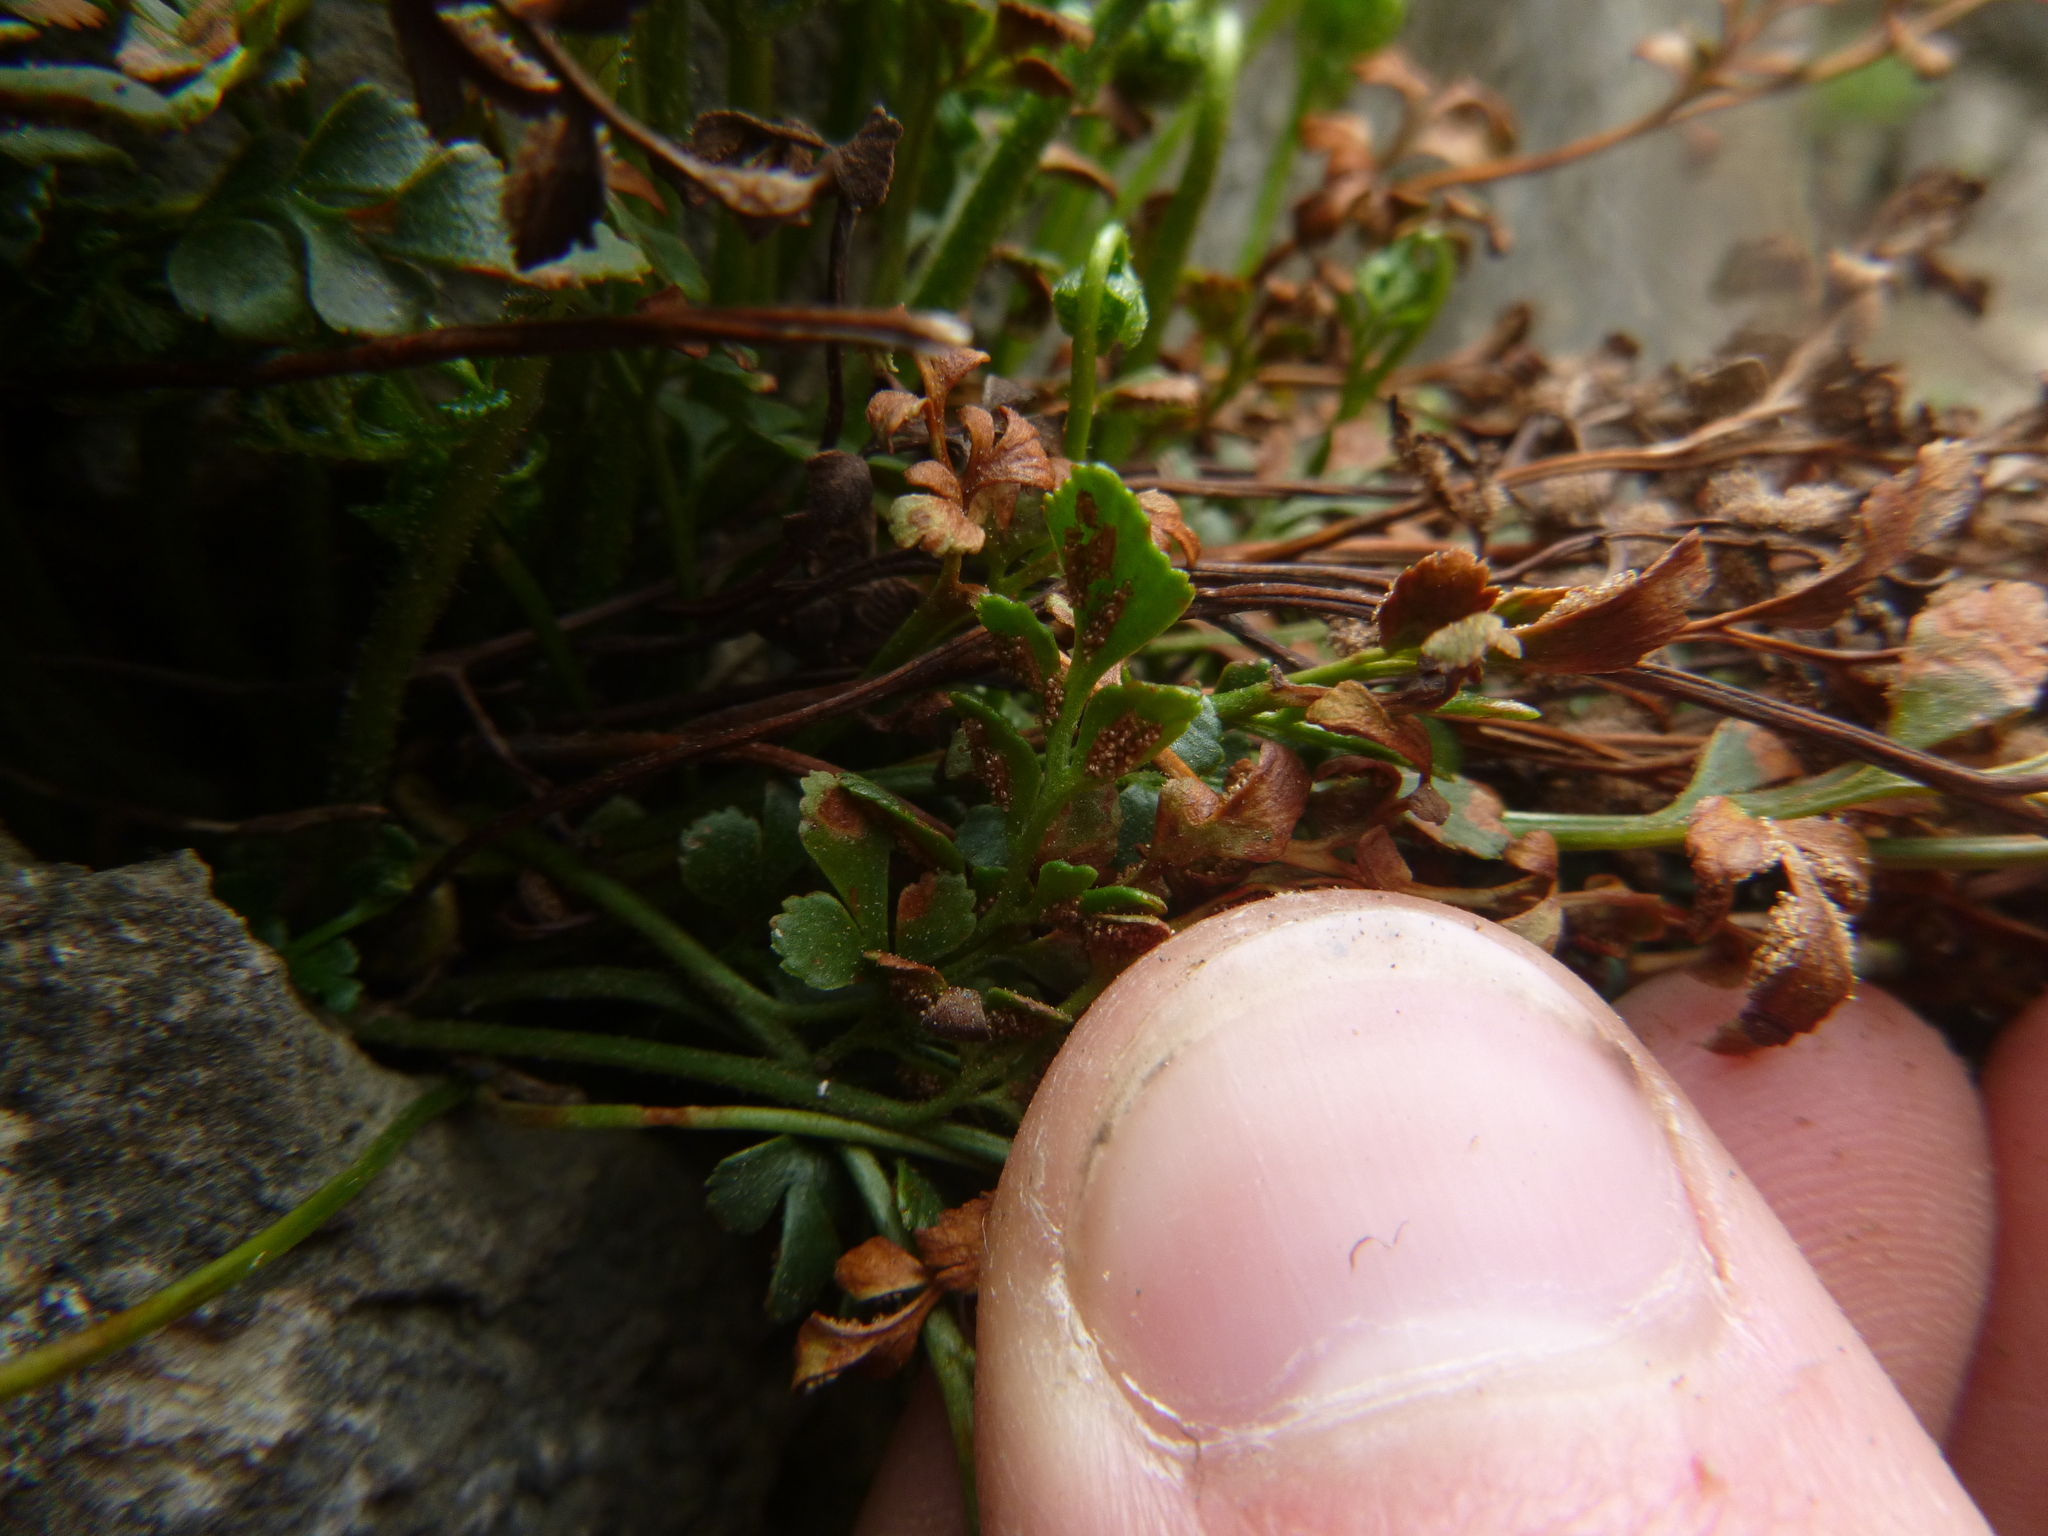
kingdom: Plantae
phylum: Tracheophyta
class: Polypodiopsida
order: Polypodiales
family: Aspleniaceae
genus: Asplenium
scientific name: Asplenium ruta-muraria
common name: Wall-rue
